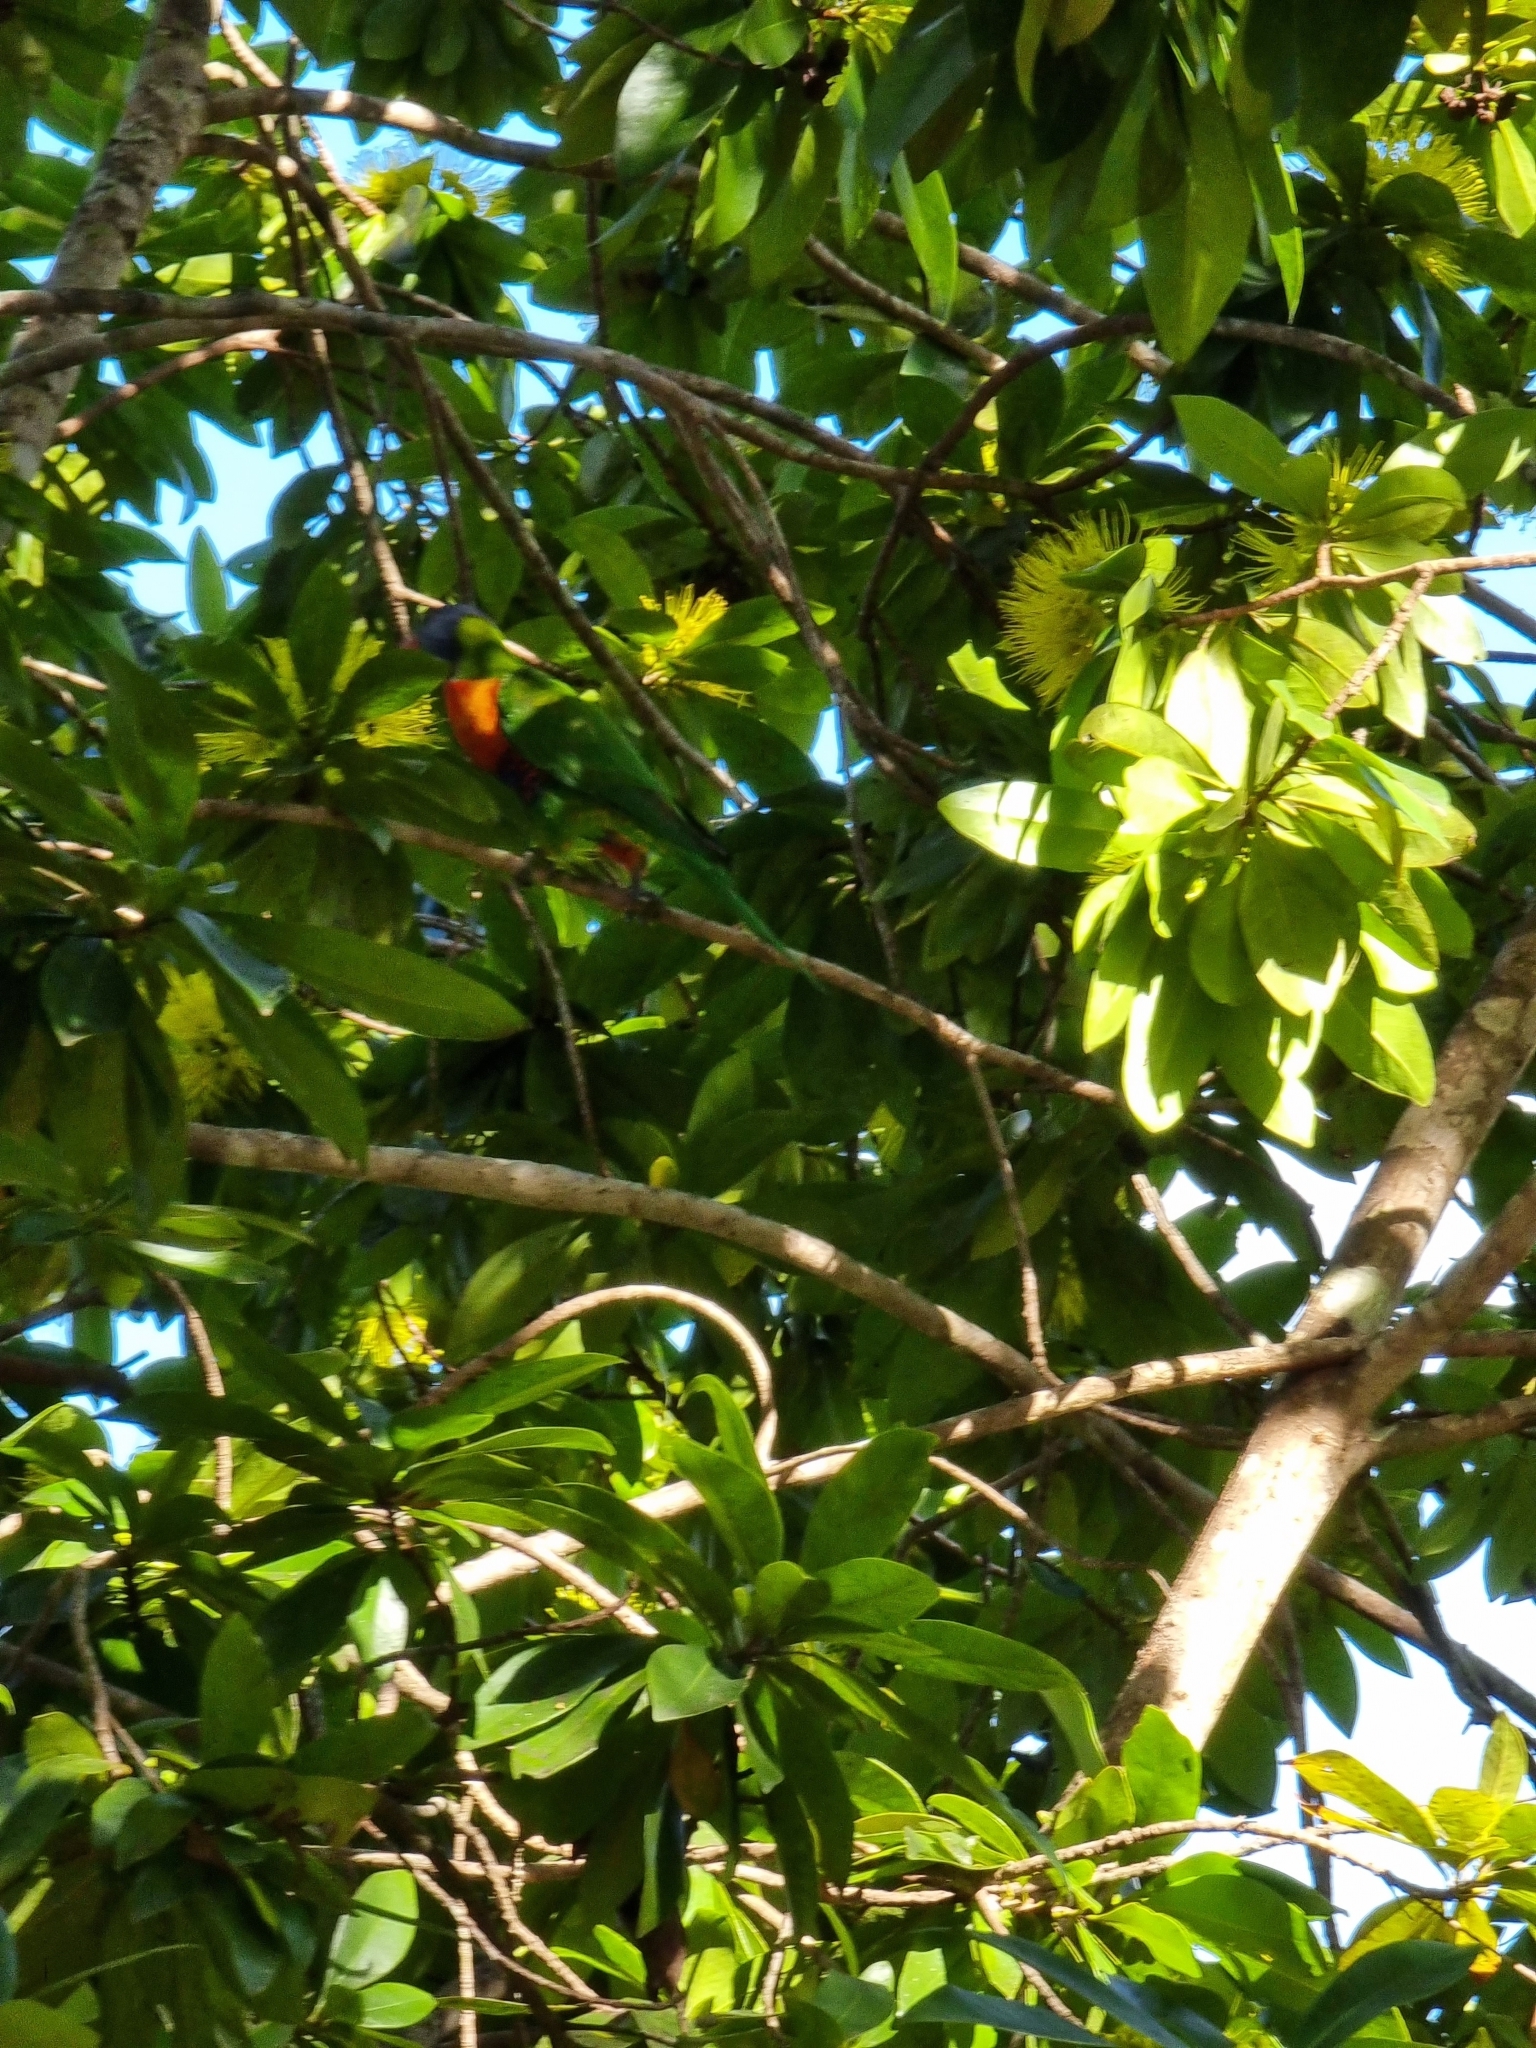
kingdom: Animalia
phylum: Chordata
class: Aves
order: Psittaciformes
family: Psittacidae
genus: Trichoglossus
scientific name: Trichoglossus haematodus
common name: Coconut lorikeet
